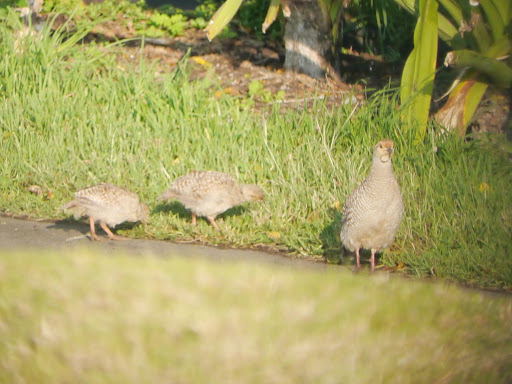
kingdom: Animalia
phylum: Chordata
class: Aves
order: Galliformes
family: Phasianidae
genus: Ortygornis
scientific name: Ortygornis pondicerianus
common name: Grey francolin
